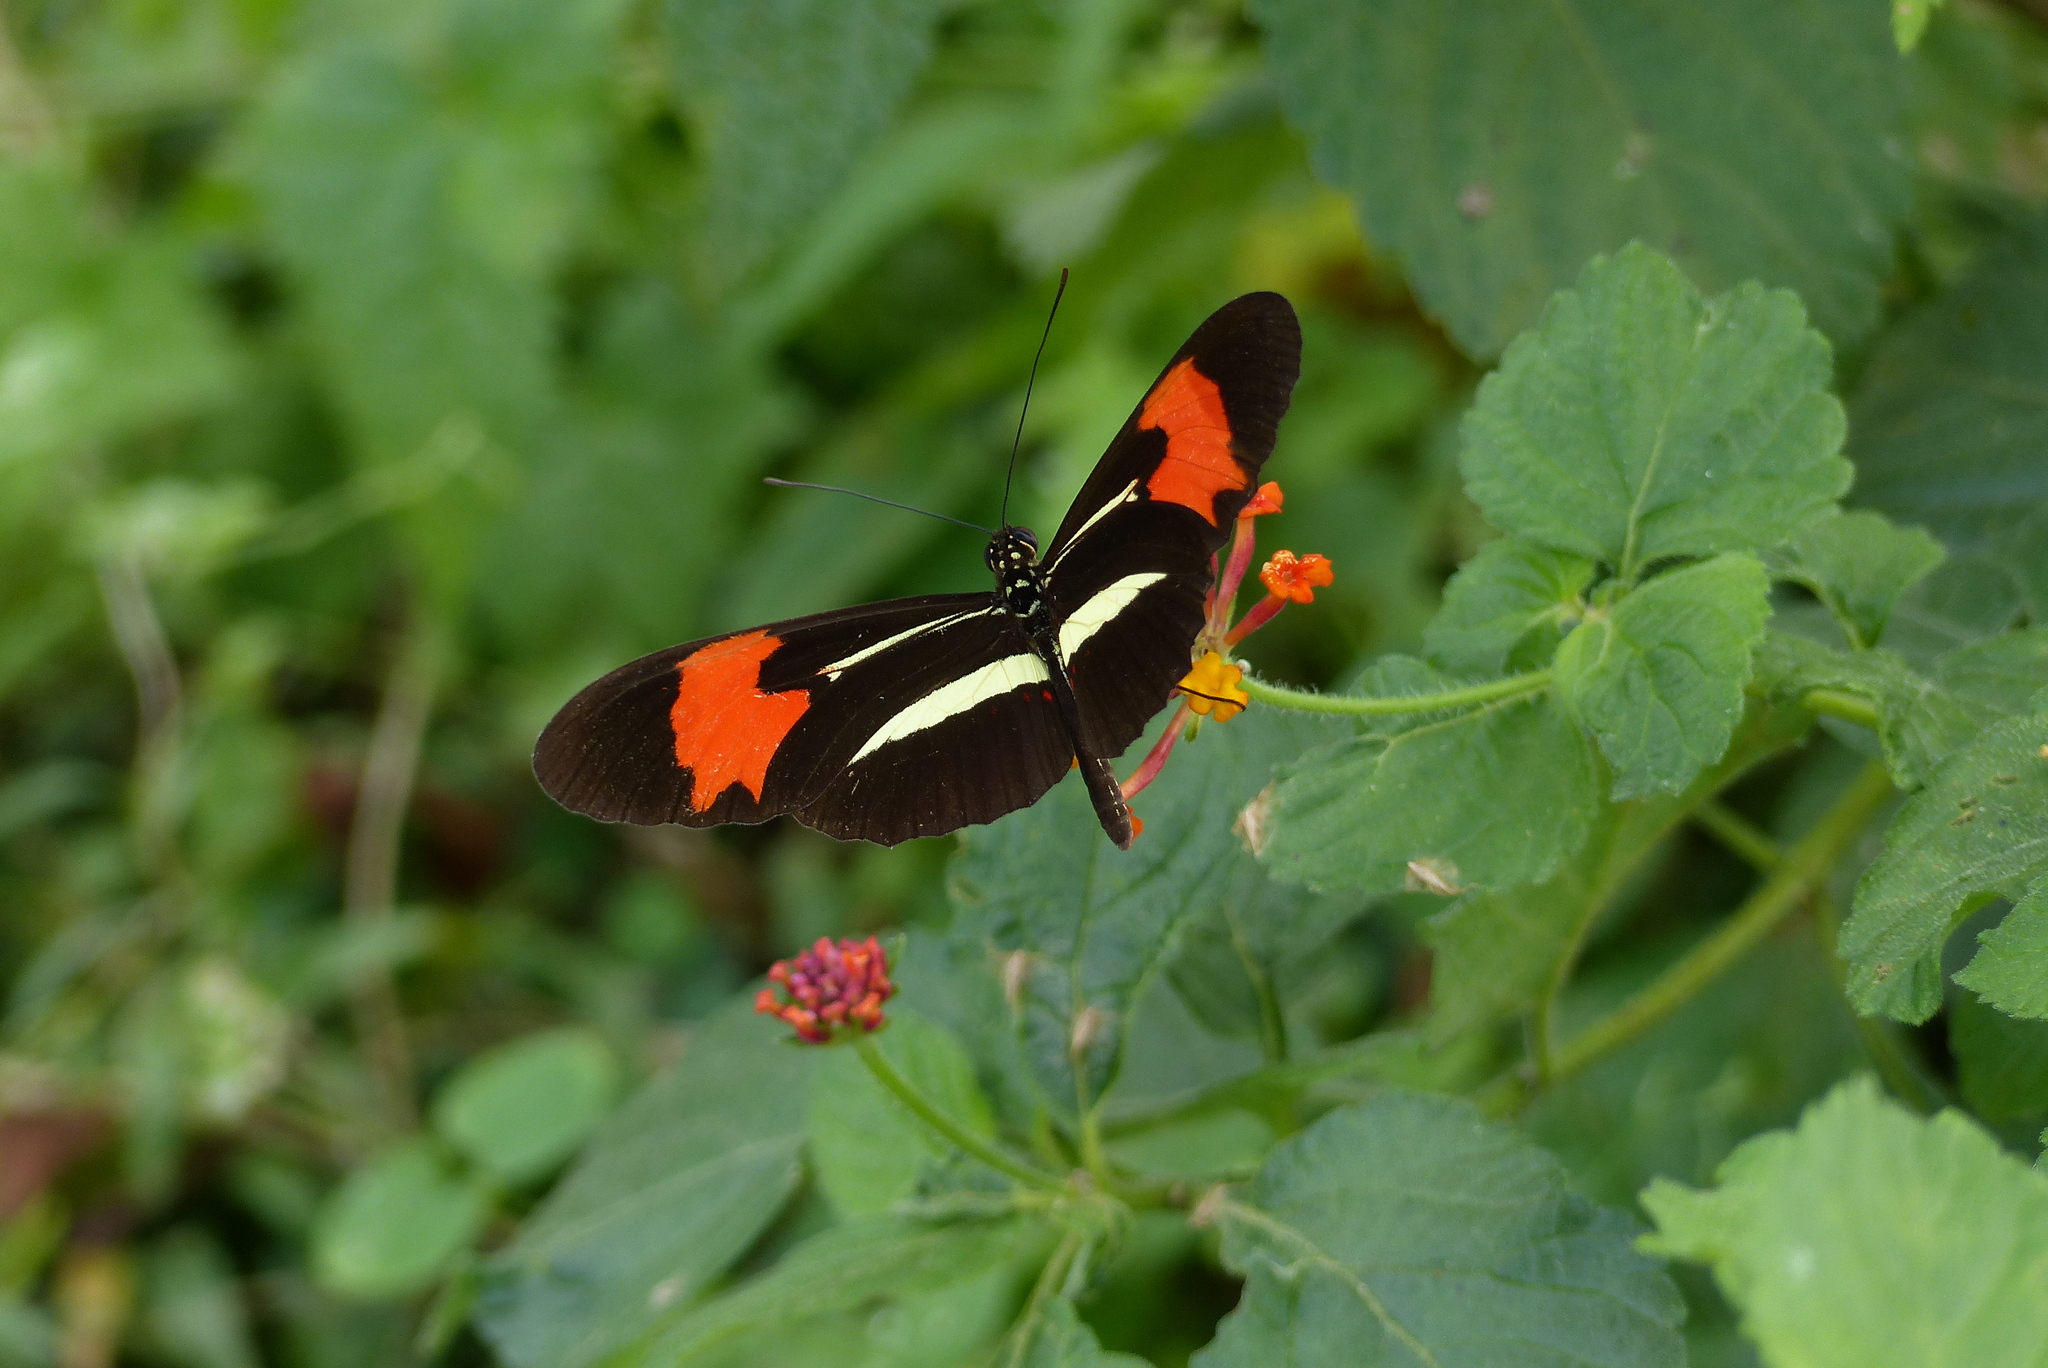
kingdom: Animalia
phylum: Arthropoda
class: Insecta
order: Lepidoptera
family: Nymphalidae
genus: Heliconius
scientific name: Heliconius erato
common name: Common patch longwing
